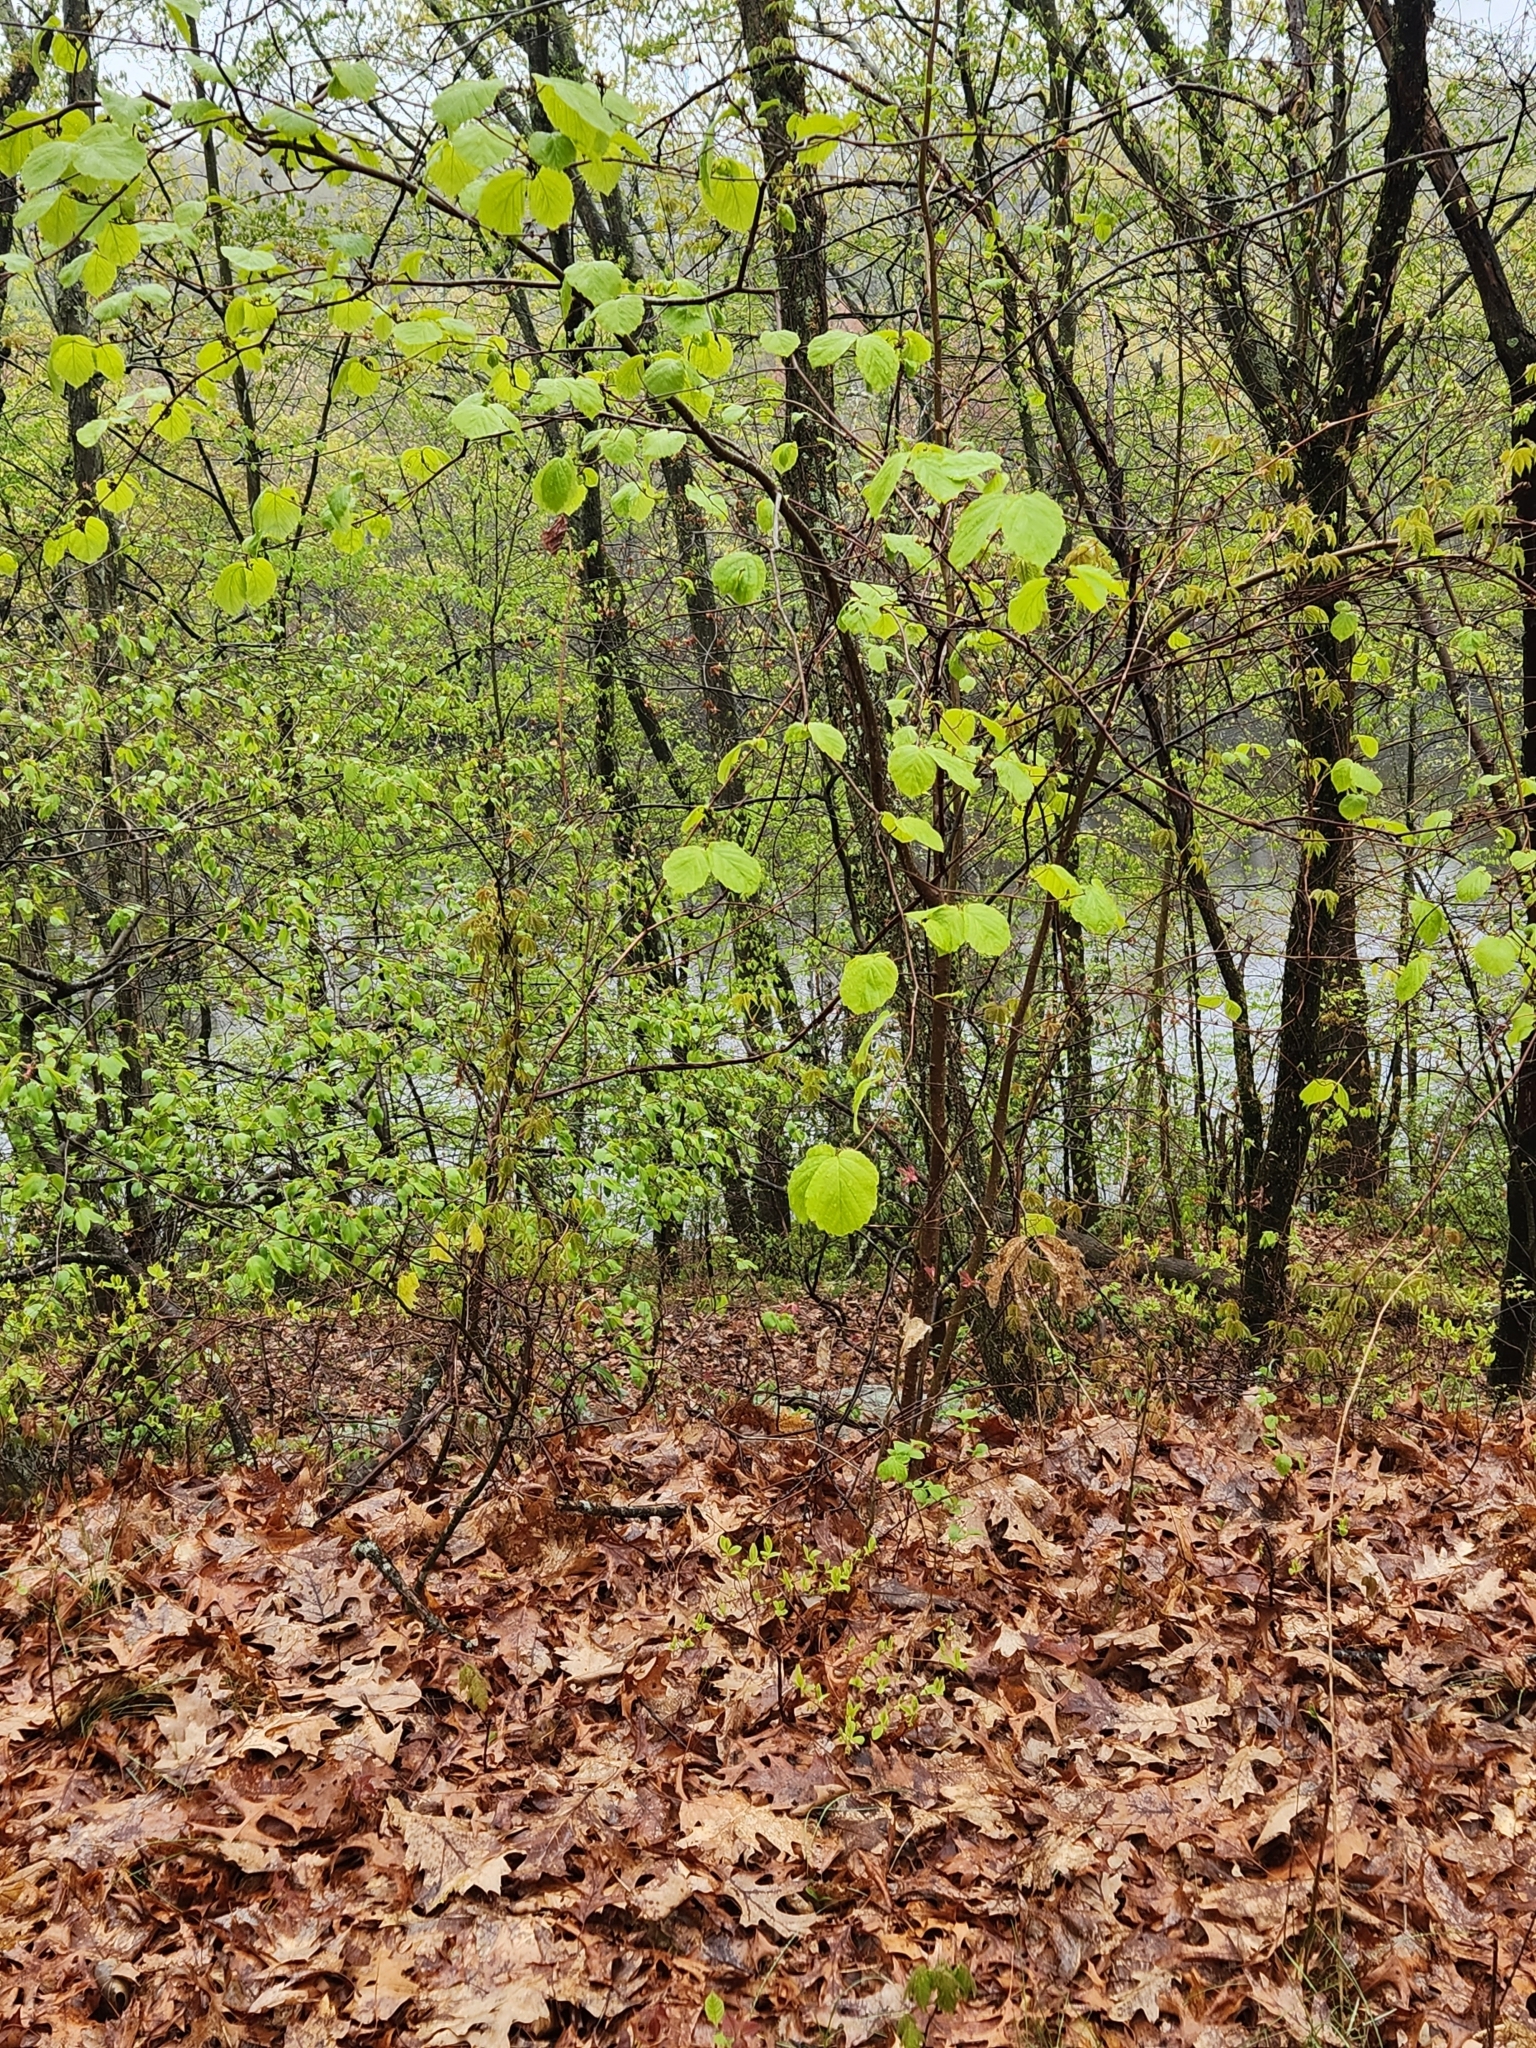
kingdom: Plantae
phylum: Tracheophyta
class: Magnoliopsida
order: Saxifragales
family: Hamamelidaceae
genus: Hamamelis
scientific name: Hamamelis virginiana
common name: Witch-hazel
